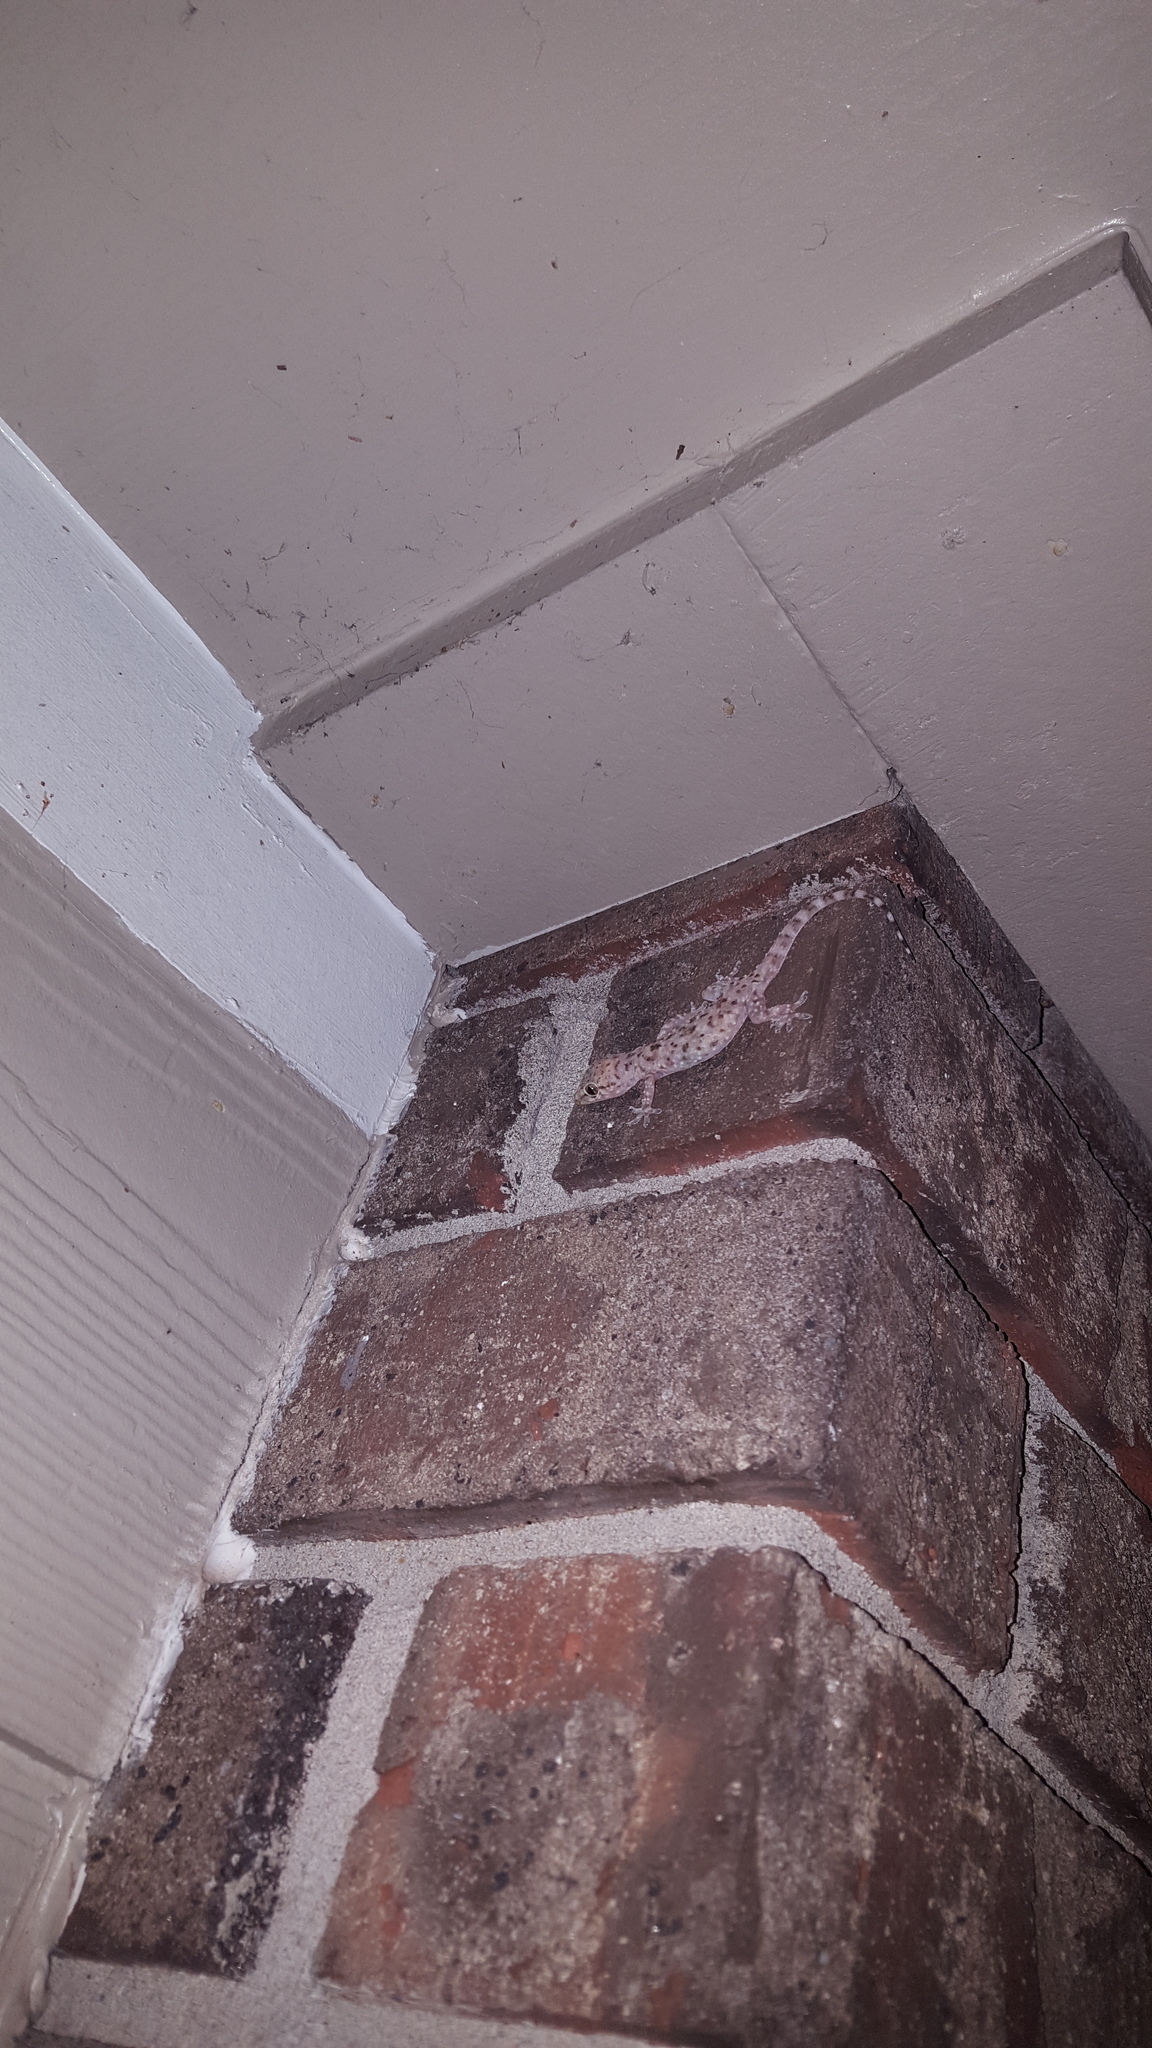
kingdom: Animalia
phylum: Chordata
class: Squamata
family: Gekkonidae
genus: Hemidactylus
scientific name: Hemidactylus turcicus
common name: Turkish gecko
